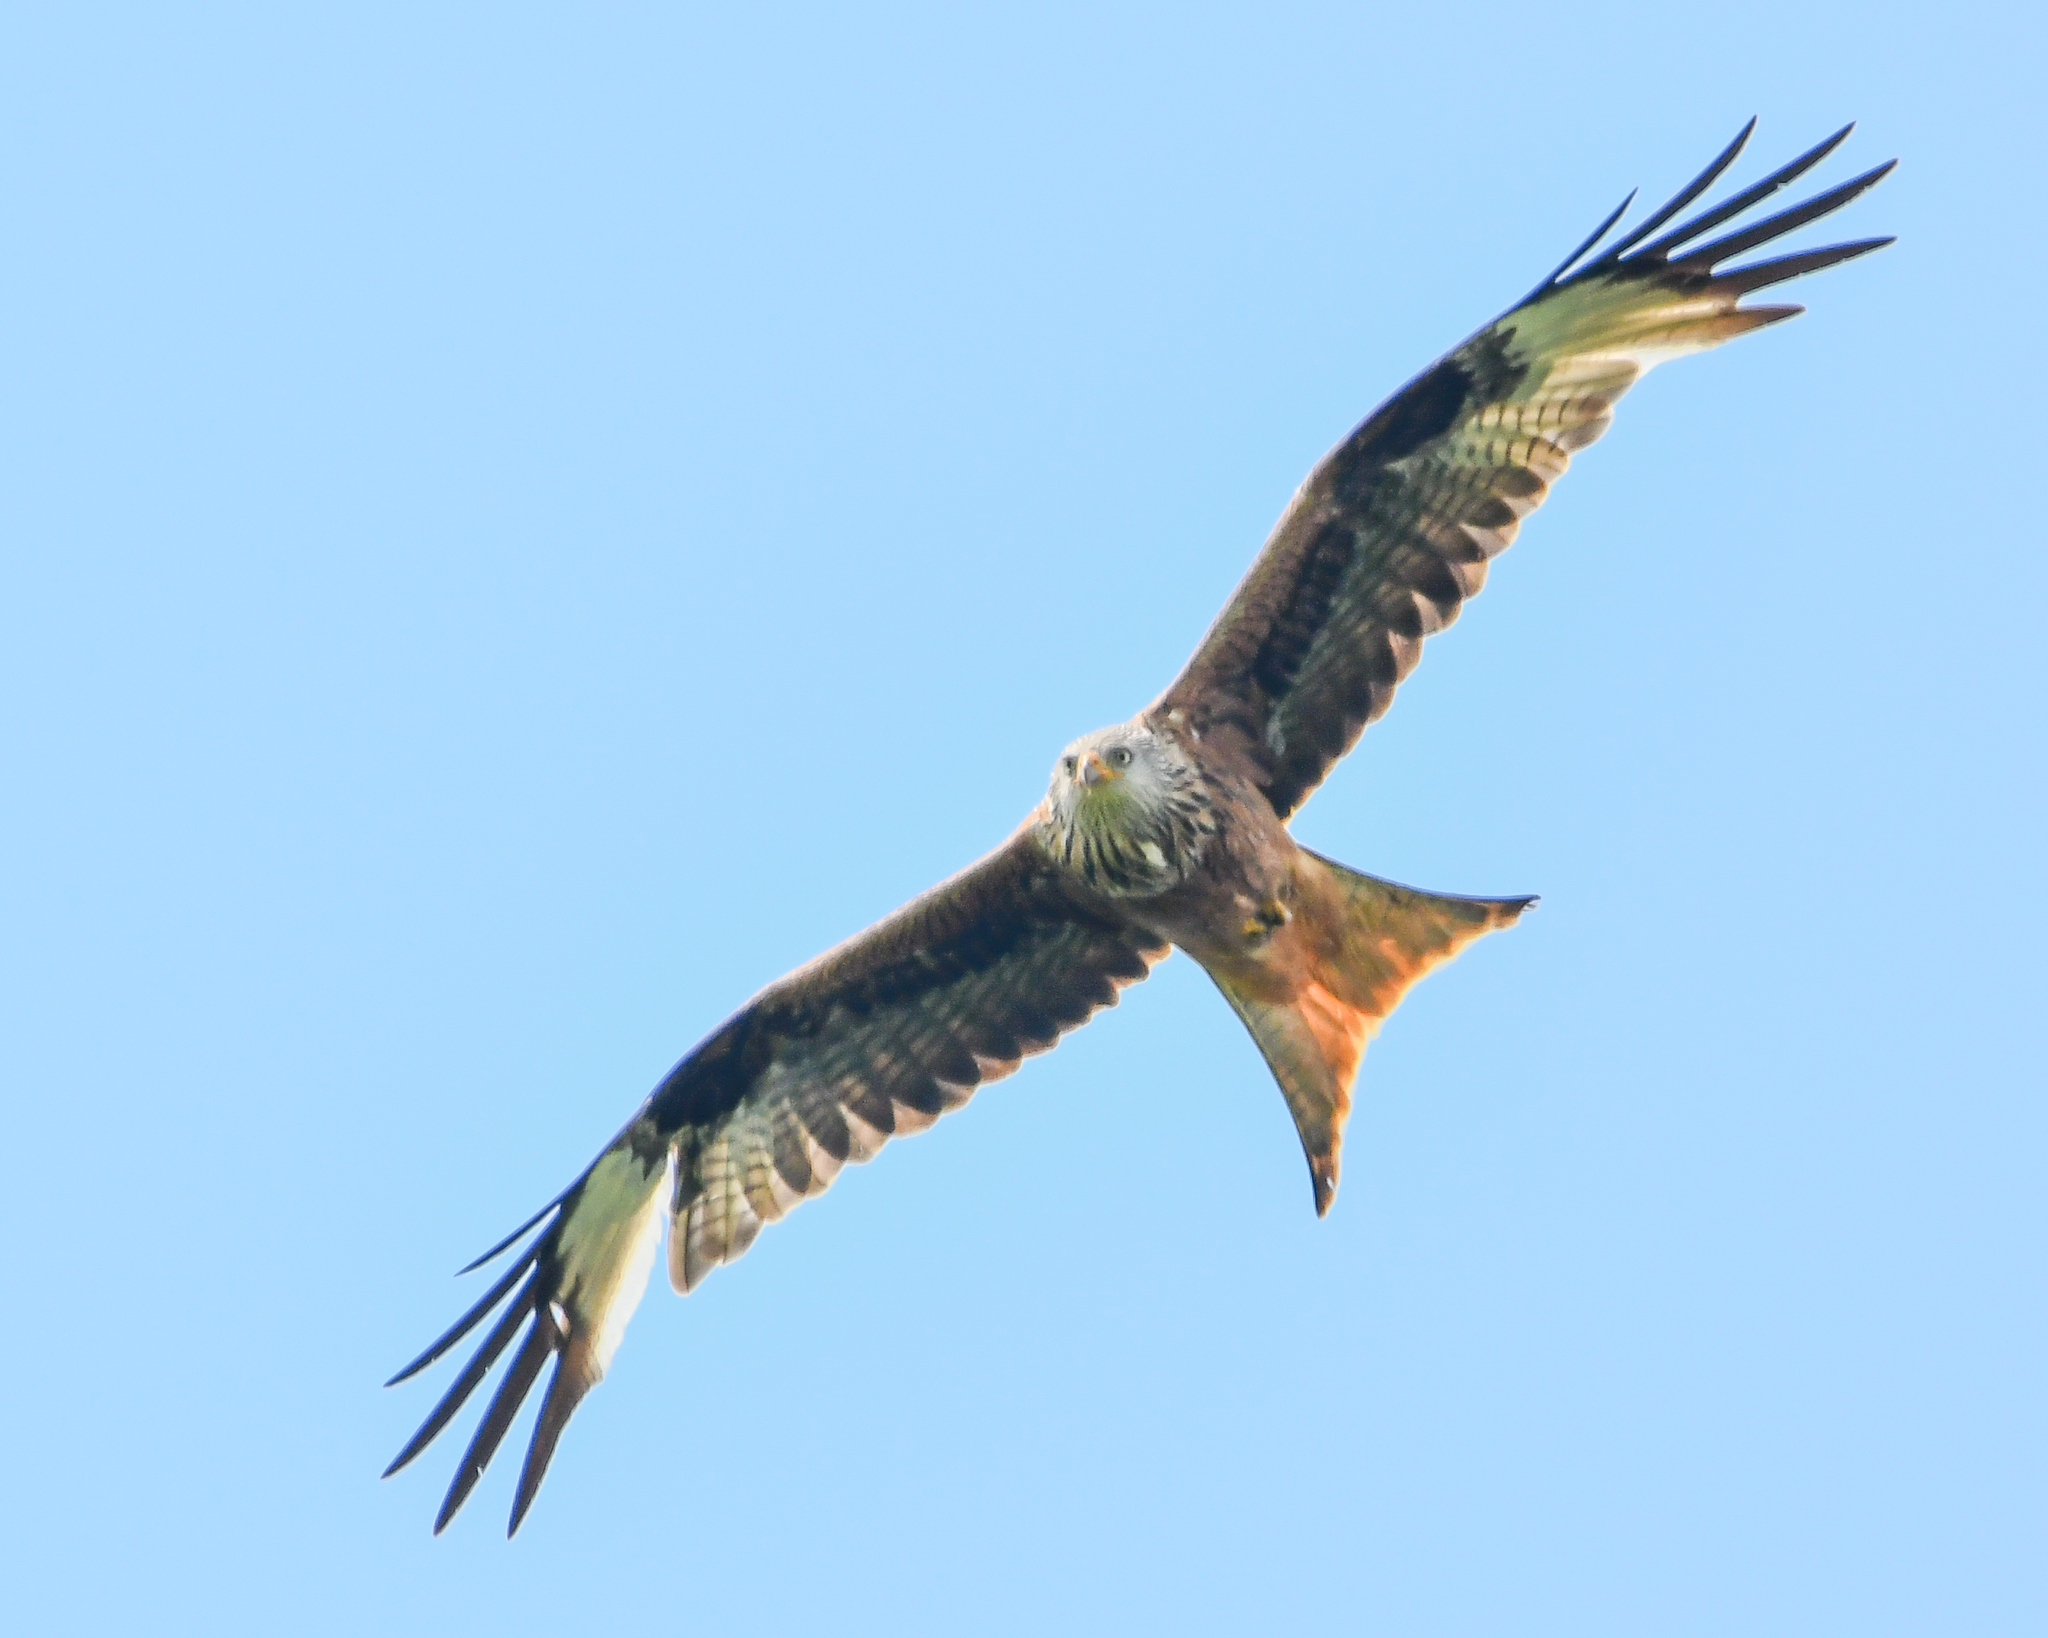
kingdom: Animalia
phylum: Chordata
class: Aves
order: Accipitriformes
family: Accipitridae
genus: Milvus
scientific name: Milvus milvus
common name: Red kite
